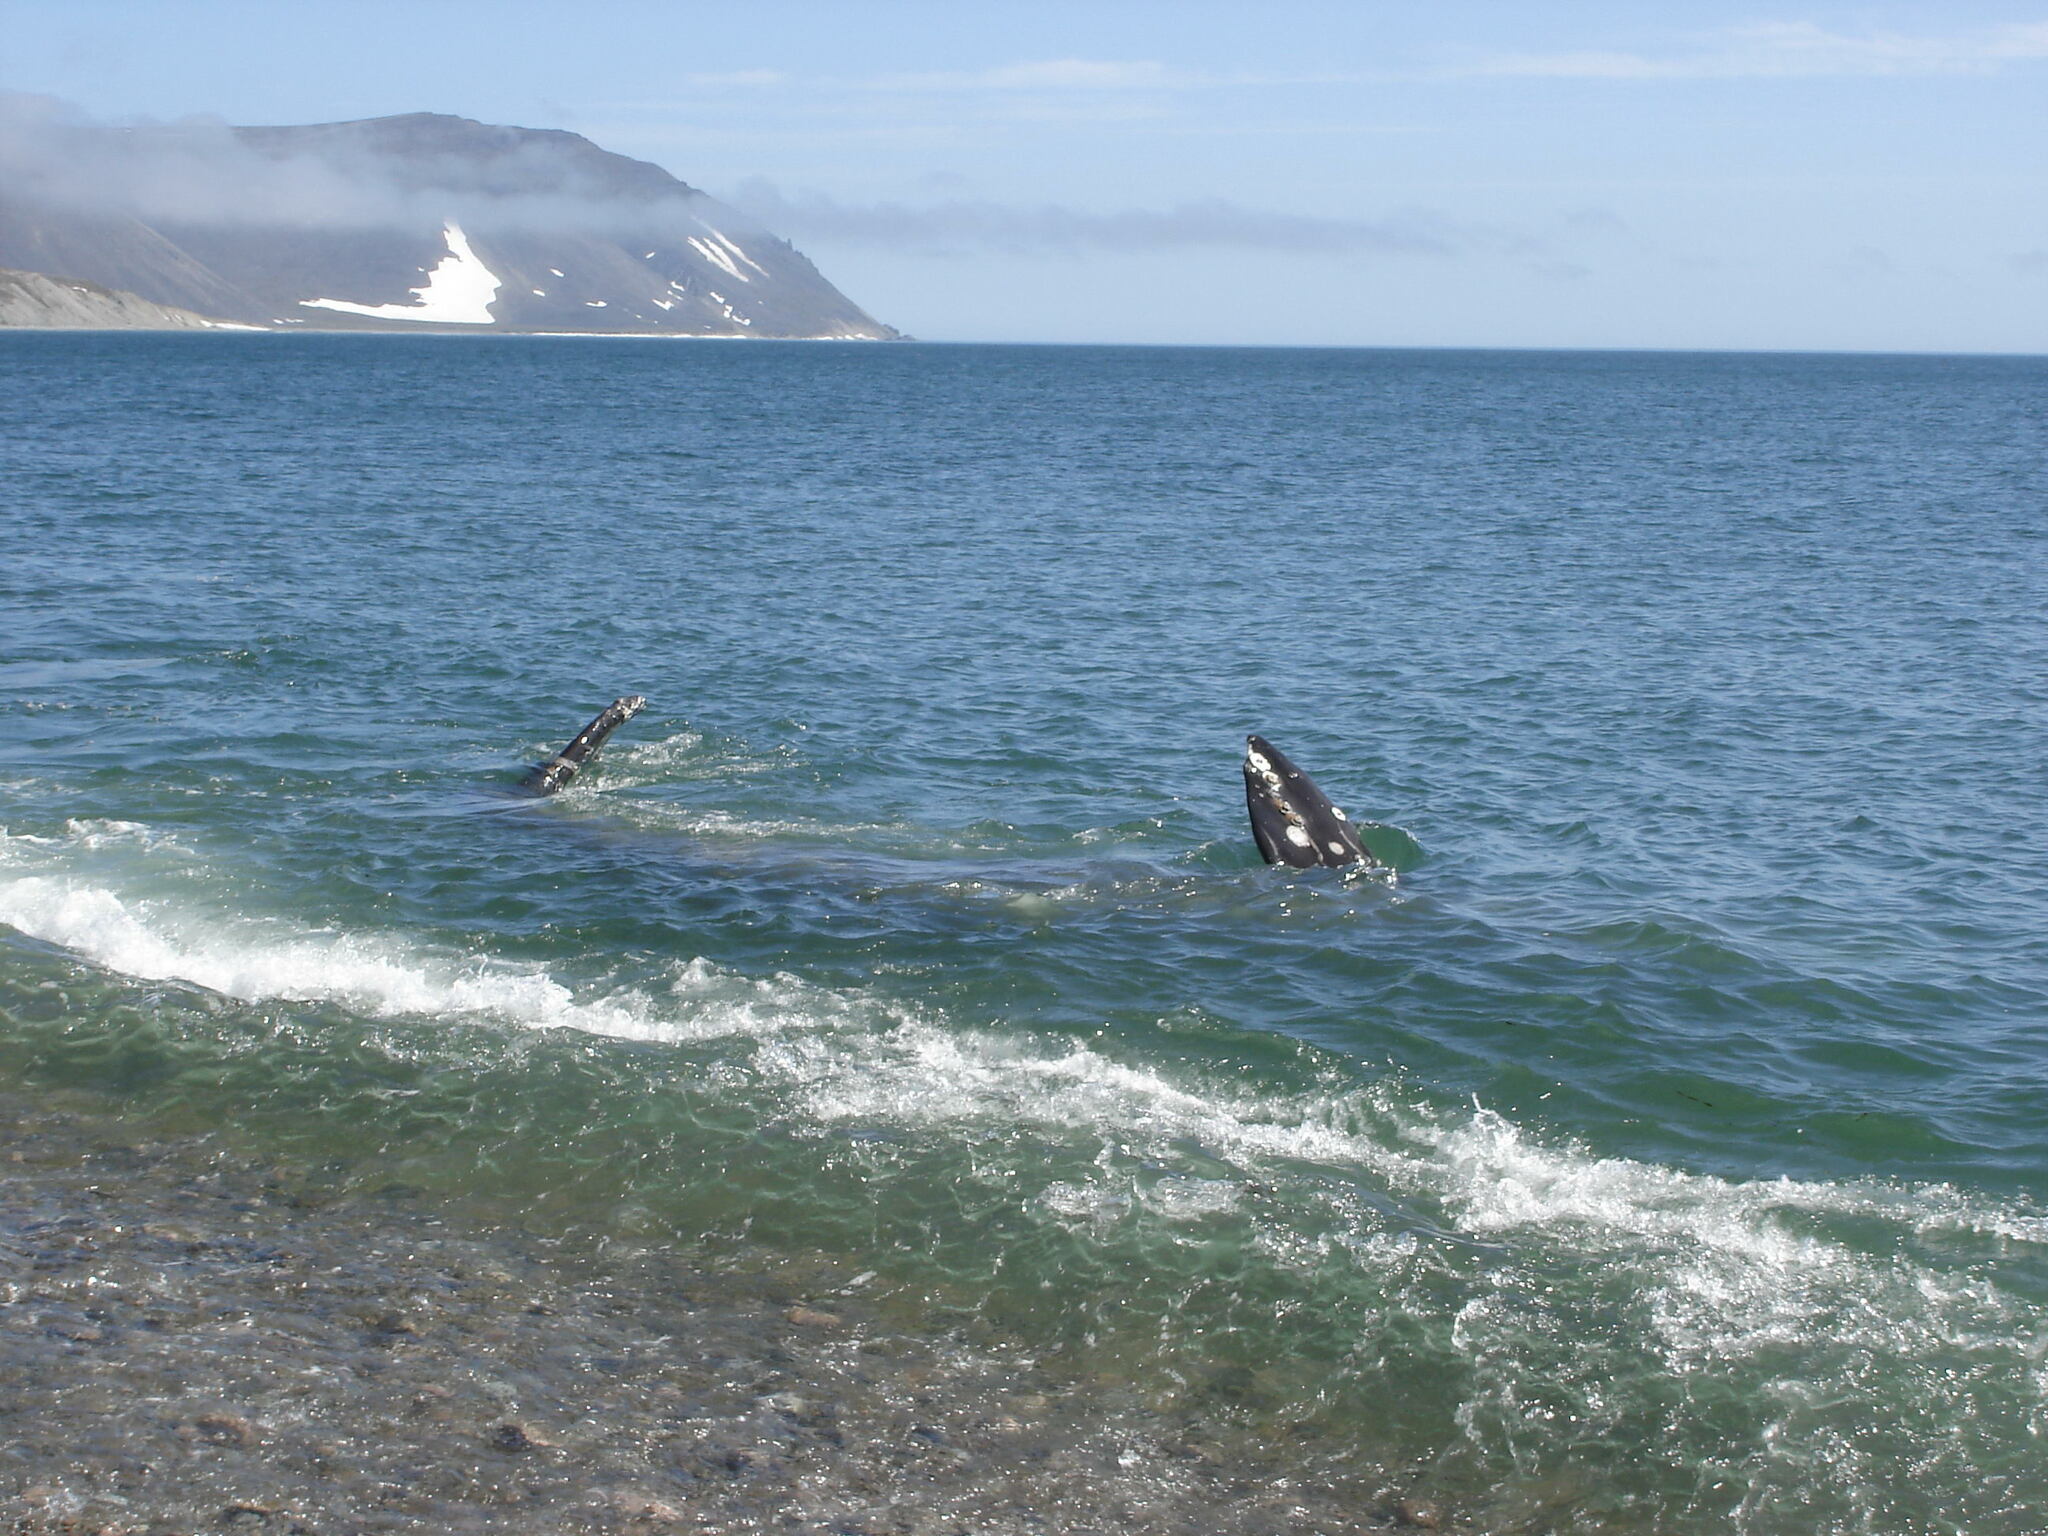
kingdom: Animalia
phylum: Chordata
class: Mammalia
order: Cetacea
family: Eschrichtiidae
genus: Eschrichtius
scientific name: Eschrichtius robustus
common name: Gray whale
